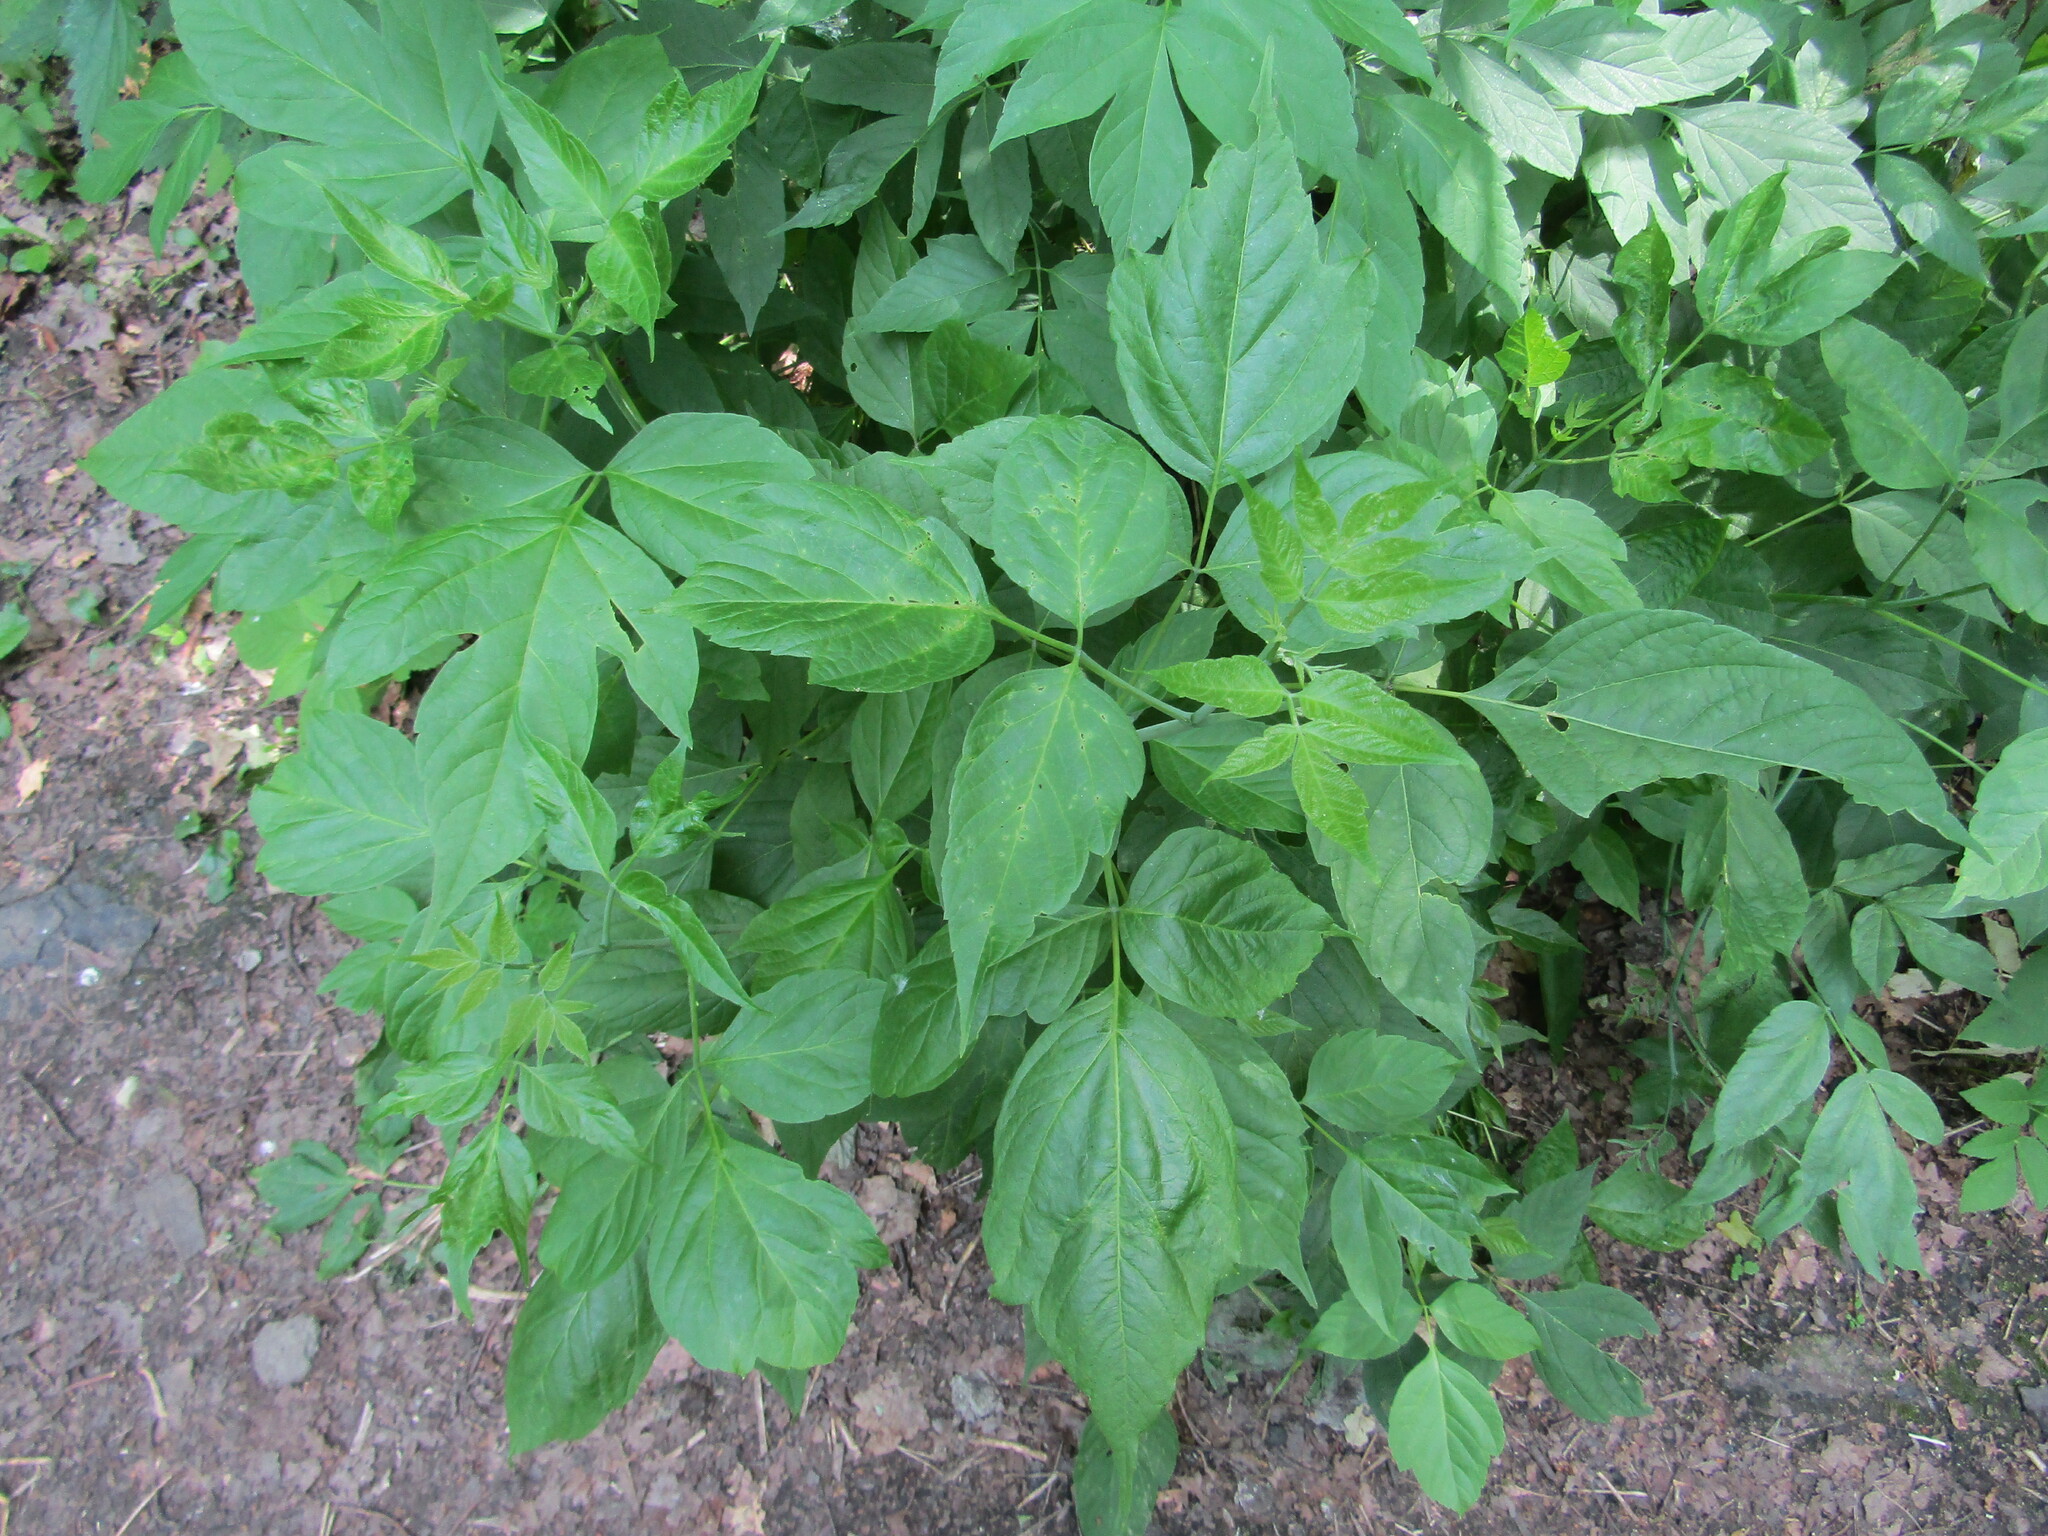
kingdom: Plantae
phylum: Tracheophyta
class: Magnoliopsida
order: Sapindales
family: Sapindaceae
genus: Acer
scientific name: Acer negundo
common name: Ashleaf maple
